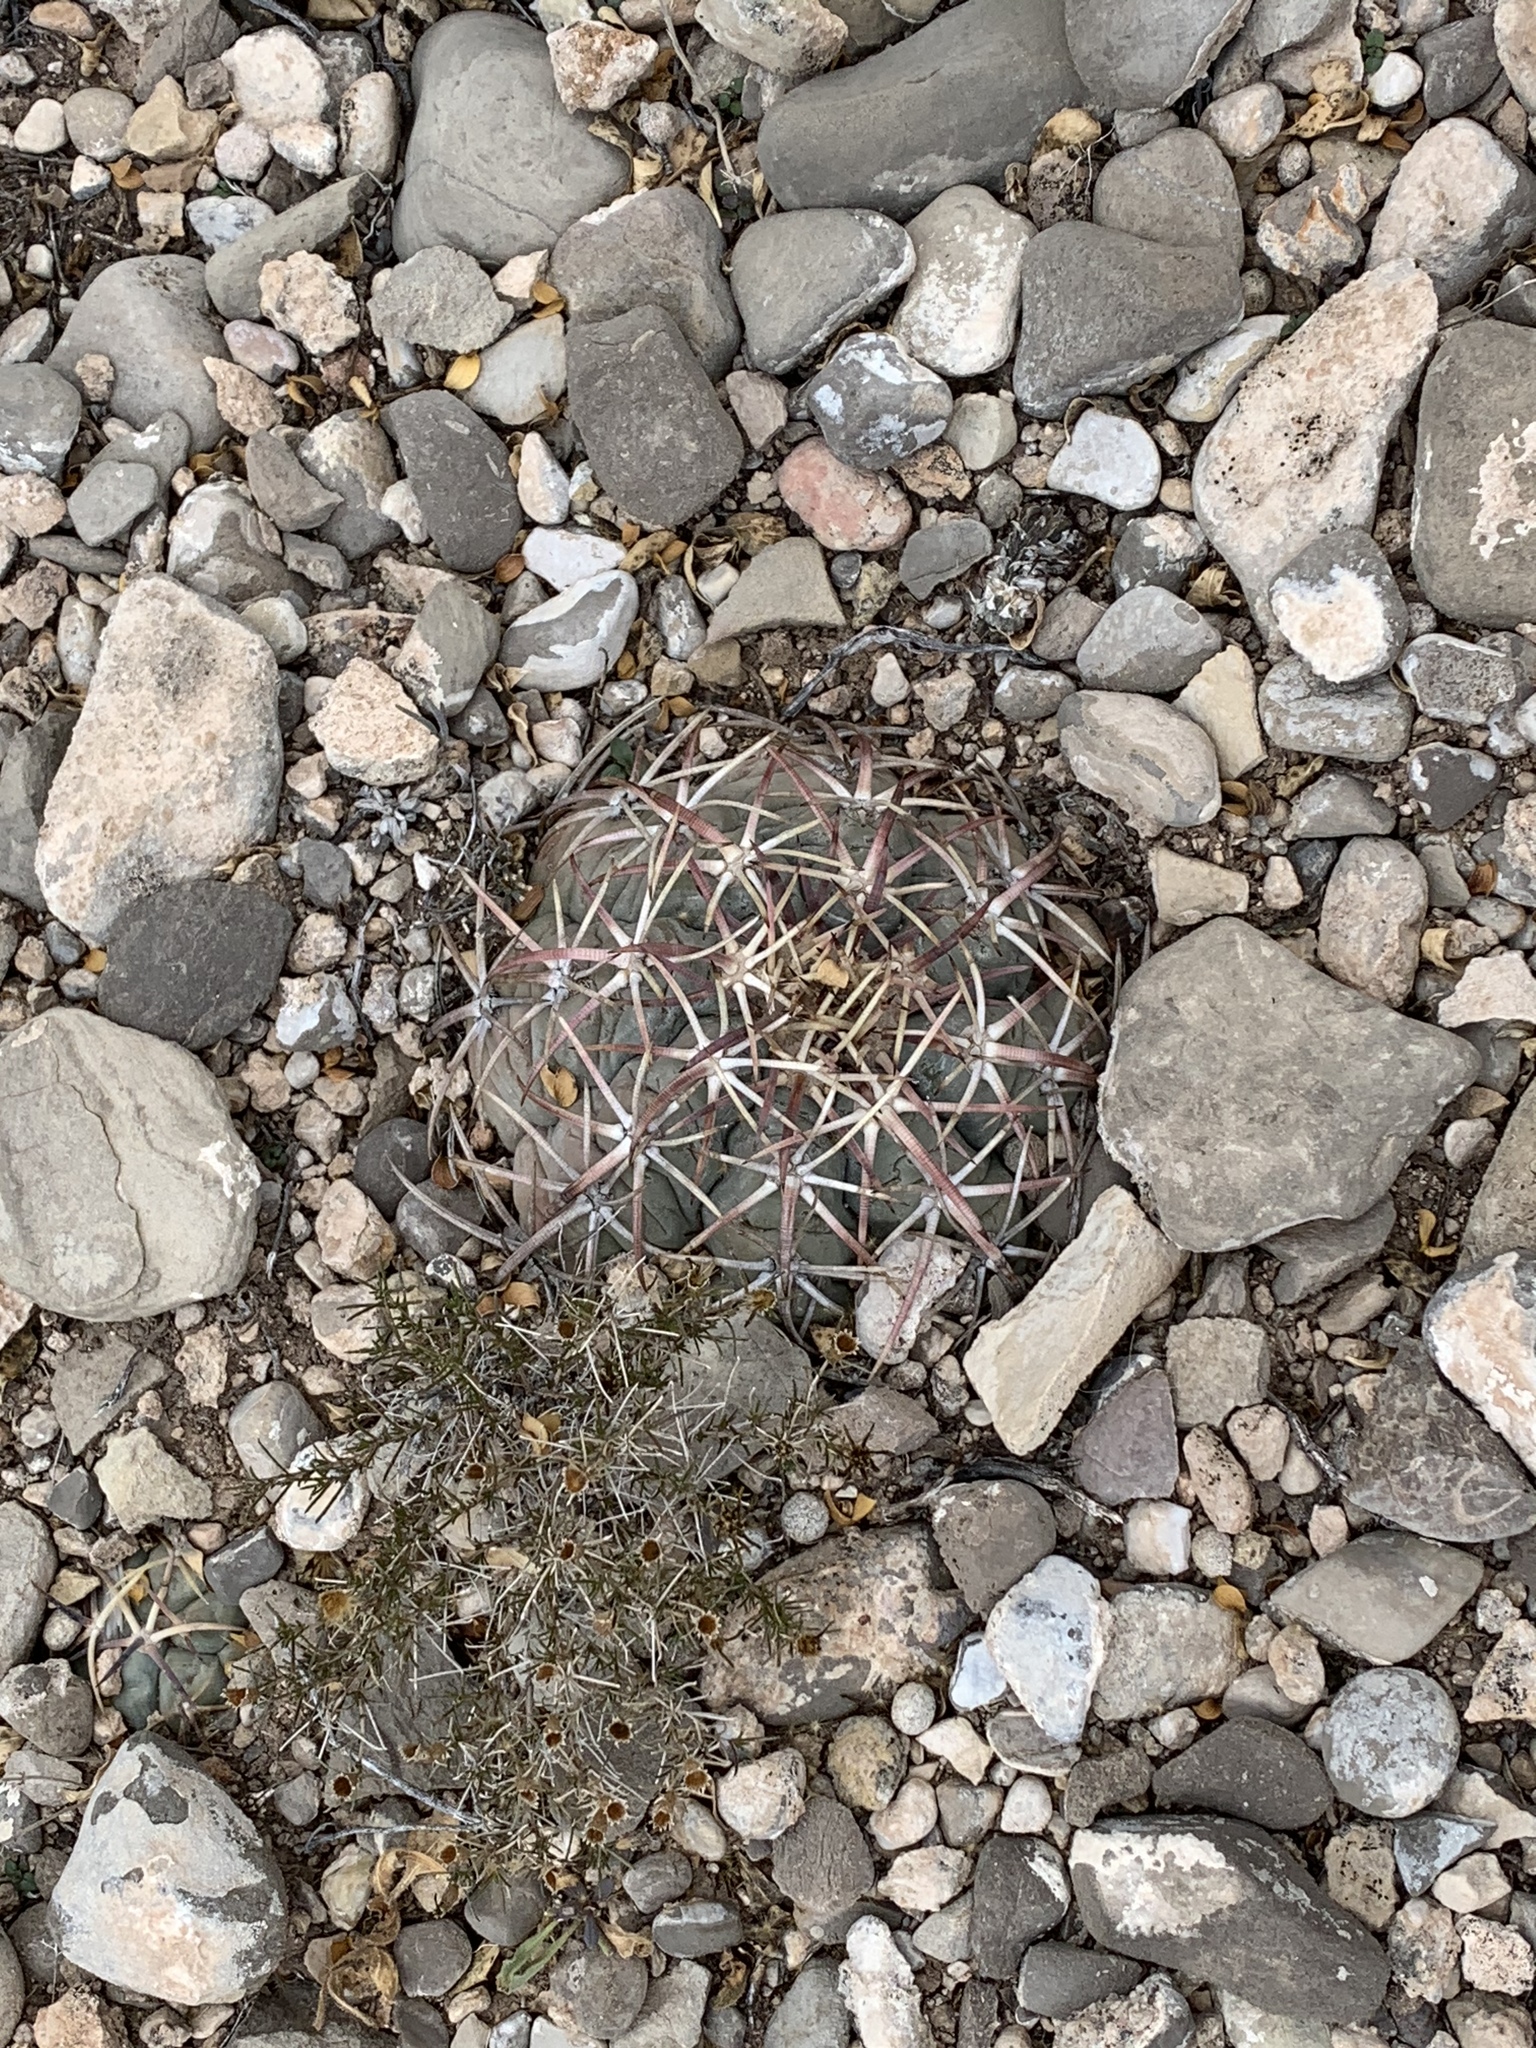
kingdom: Plantae
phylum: Tracheophyta
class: Magnoliopsida
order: Caryophyllales
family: Cactaceae
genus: Echinocactus
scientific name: Echinocactus horizonthalonius
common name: Devilshead
